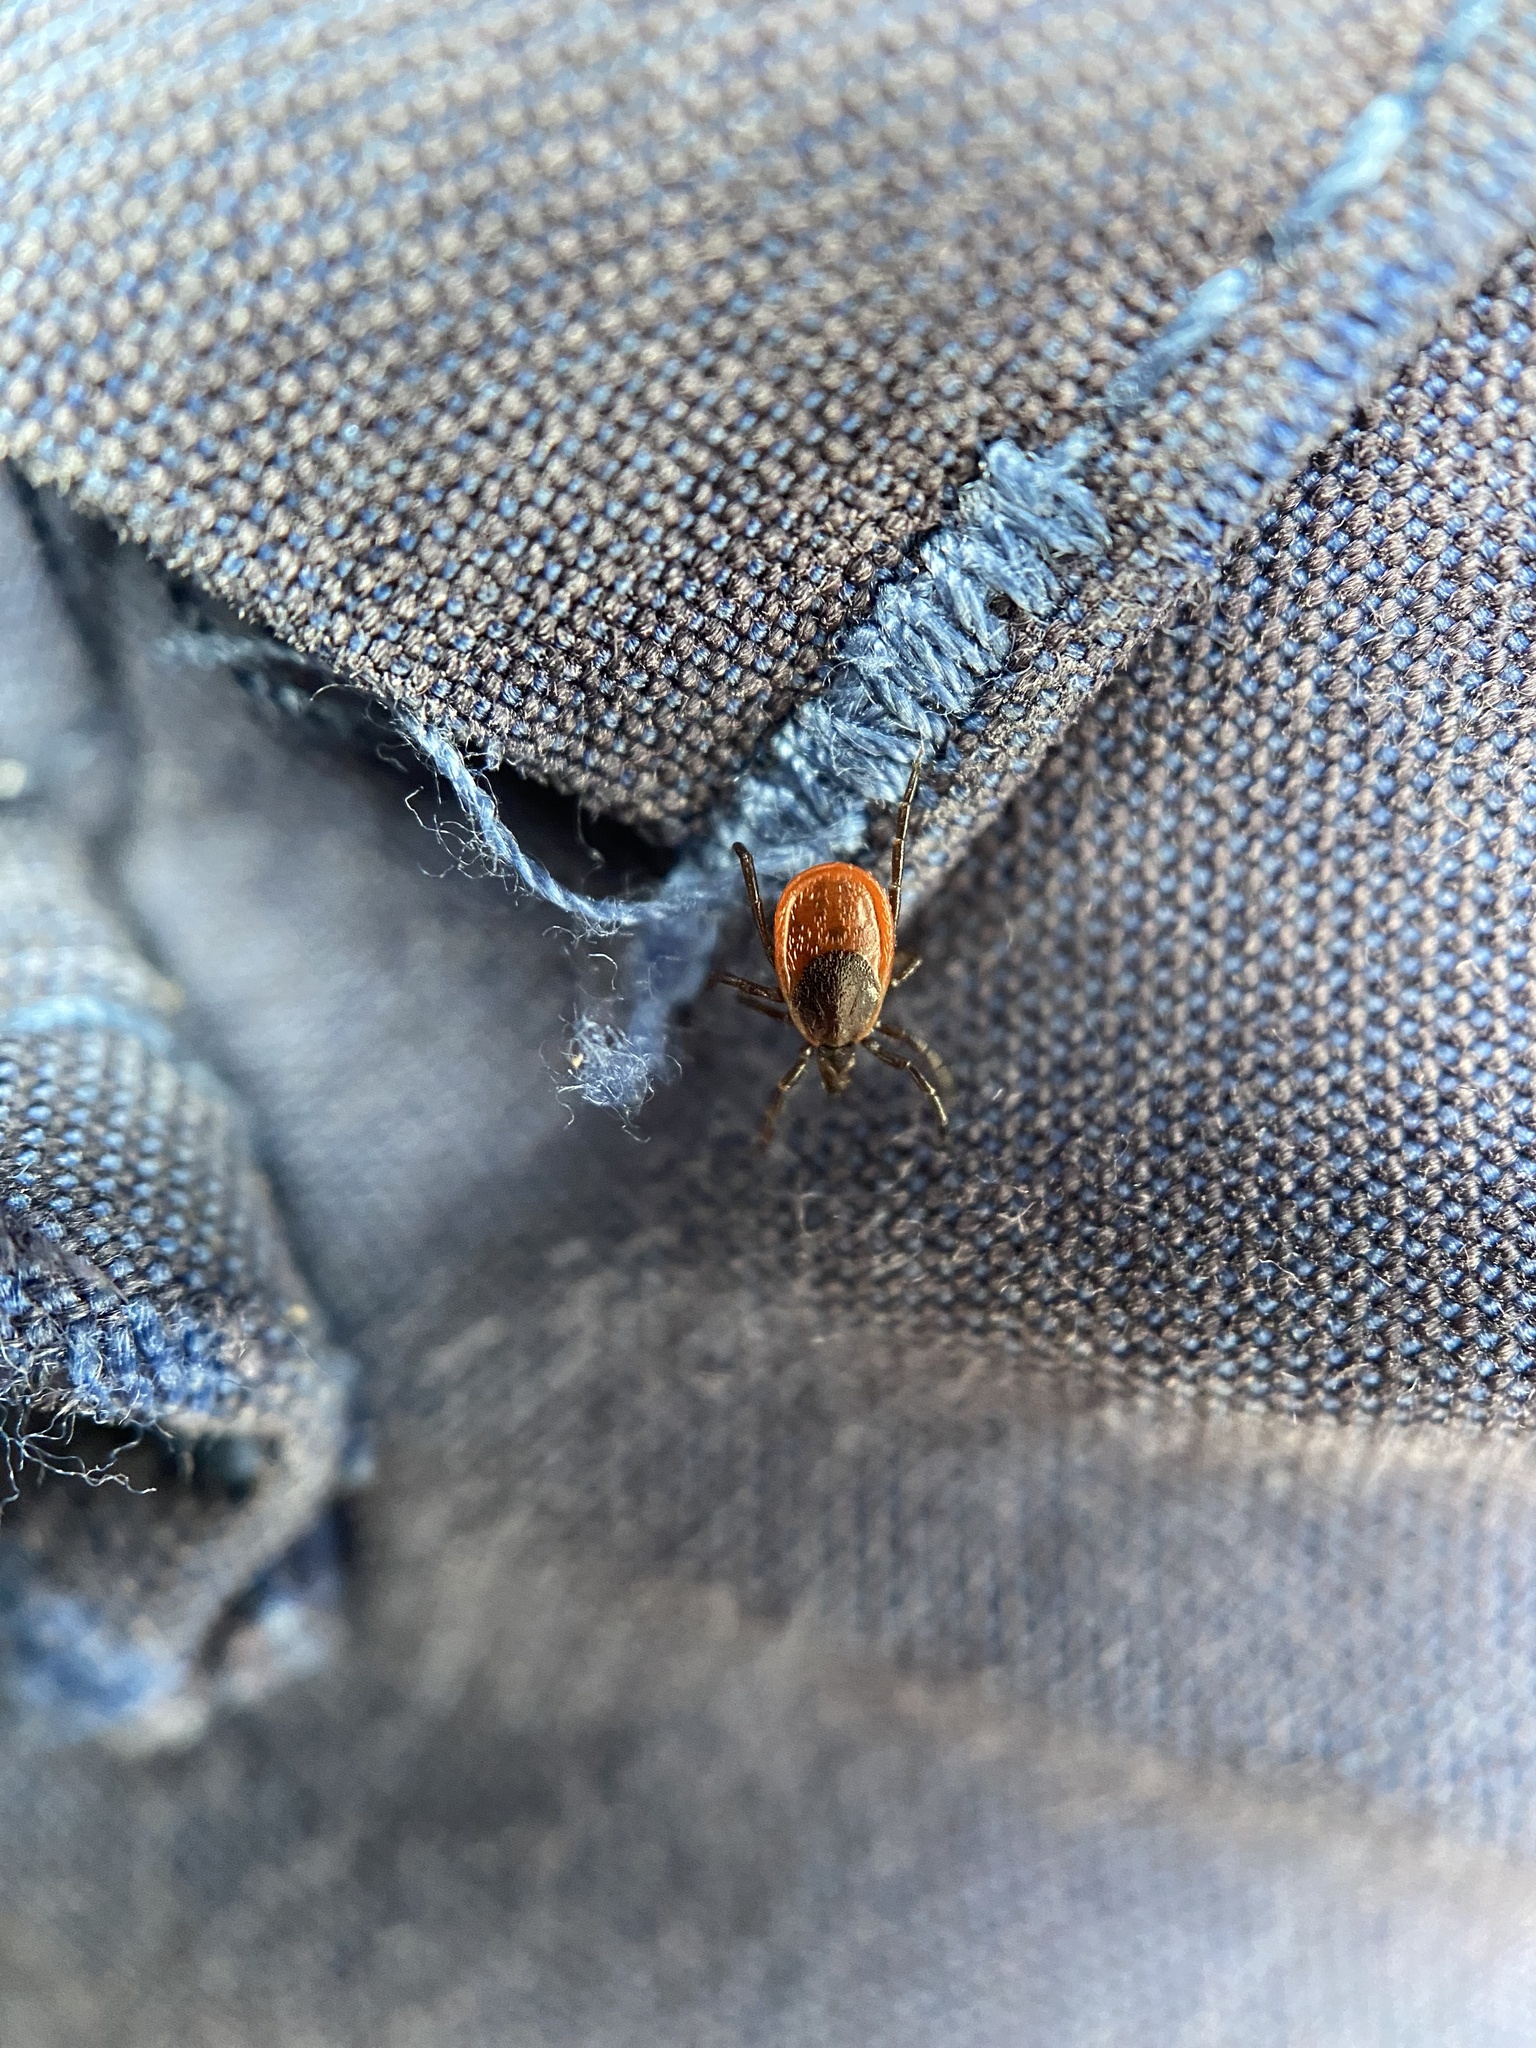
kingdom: Animalia
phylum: Arthropoda
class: Arachnida
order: Ixodida
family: Ixodidae
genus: Ixodes
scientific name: Ixodes scapularis
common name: Black legged tick
